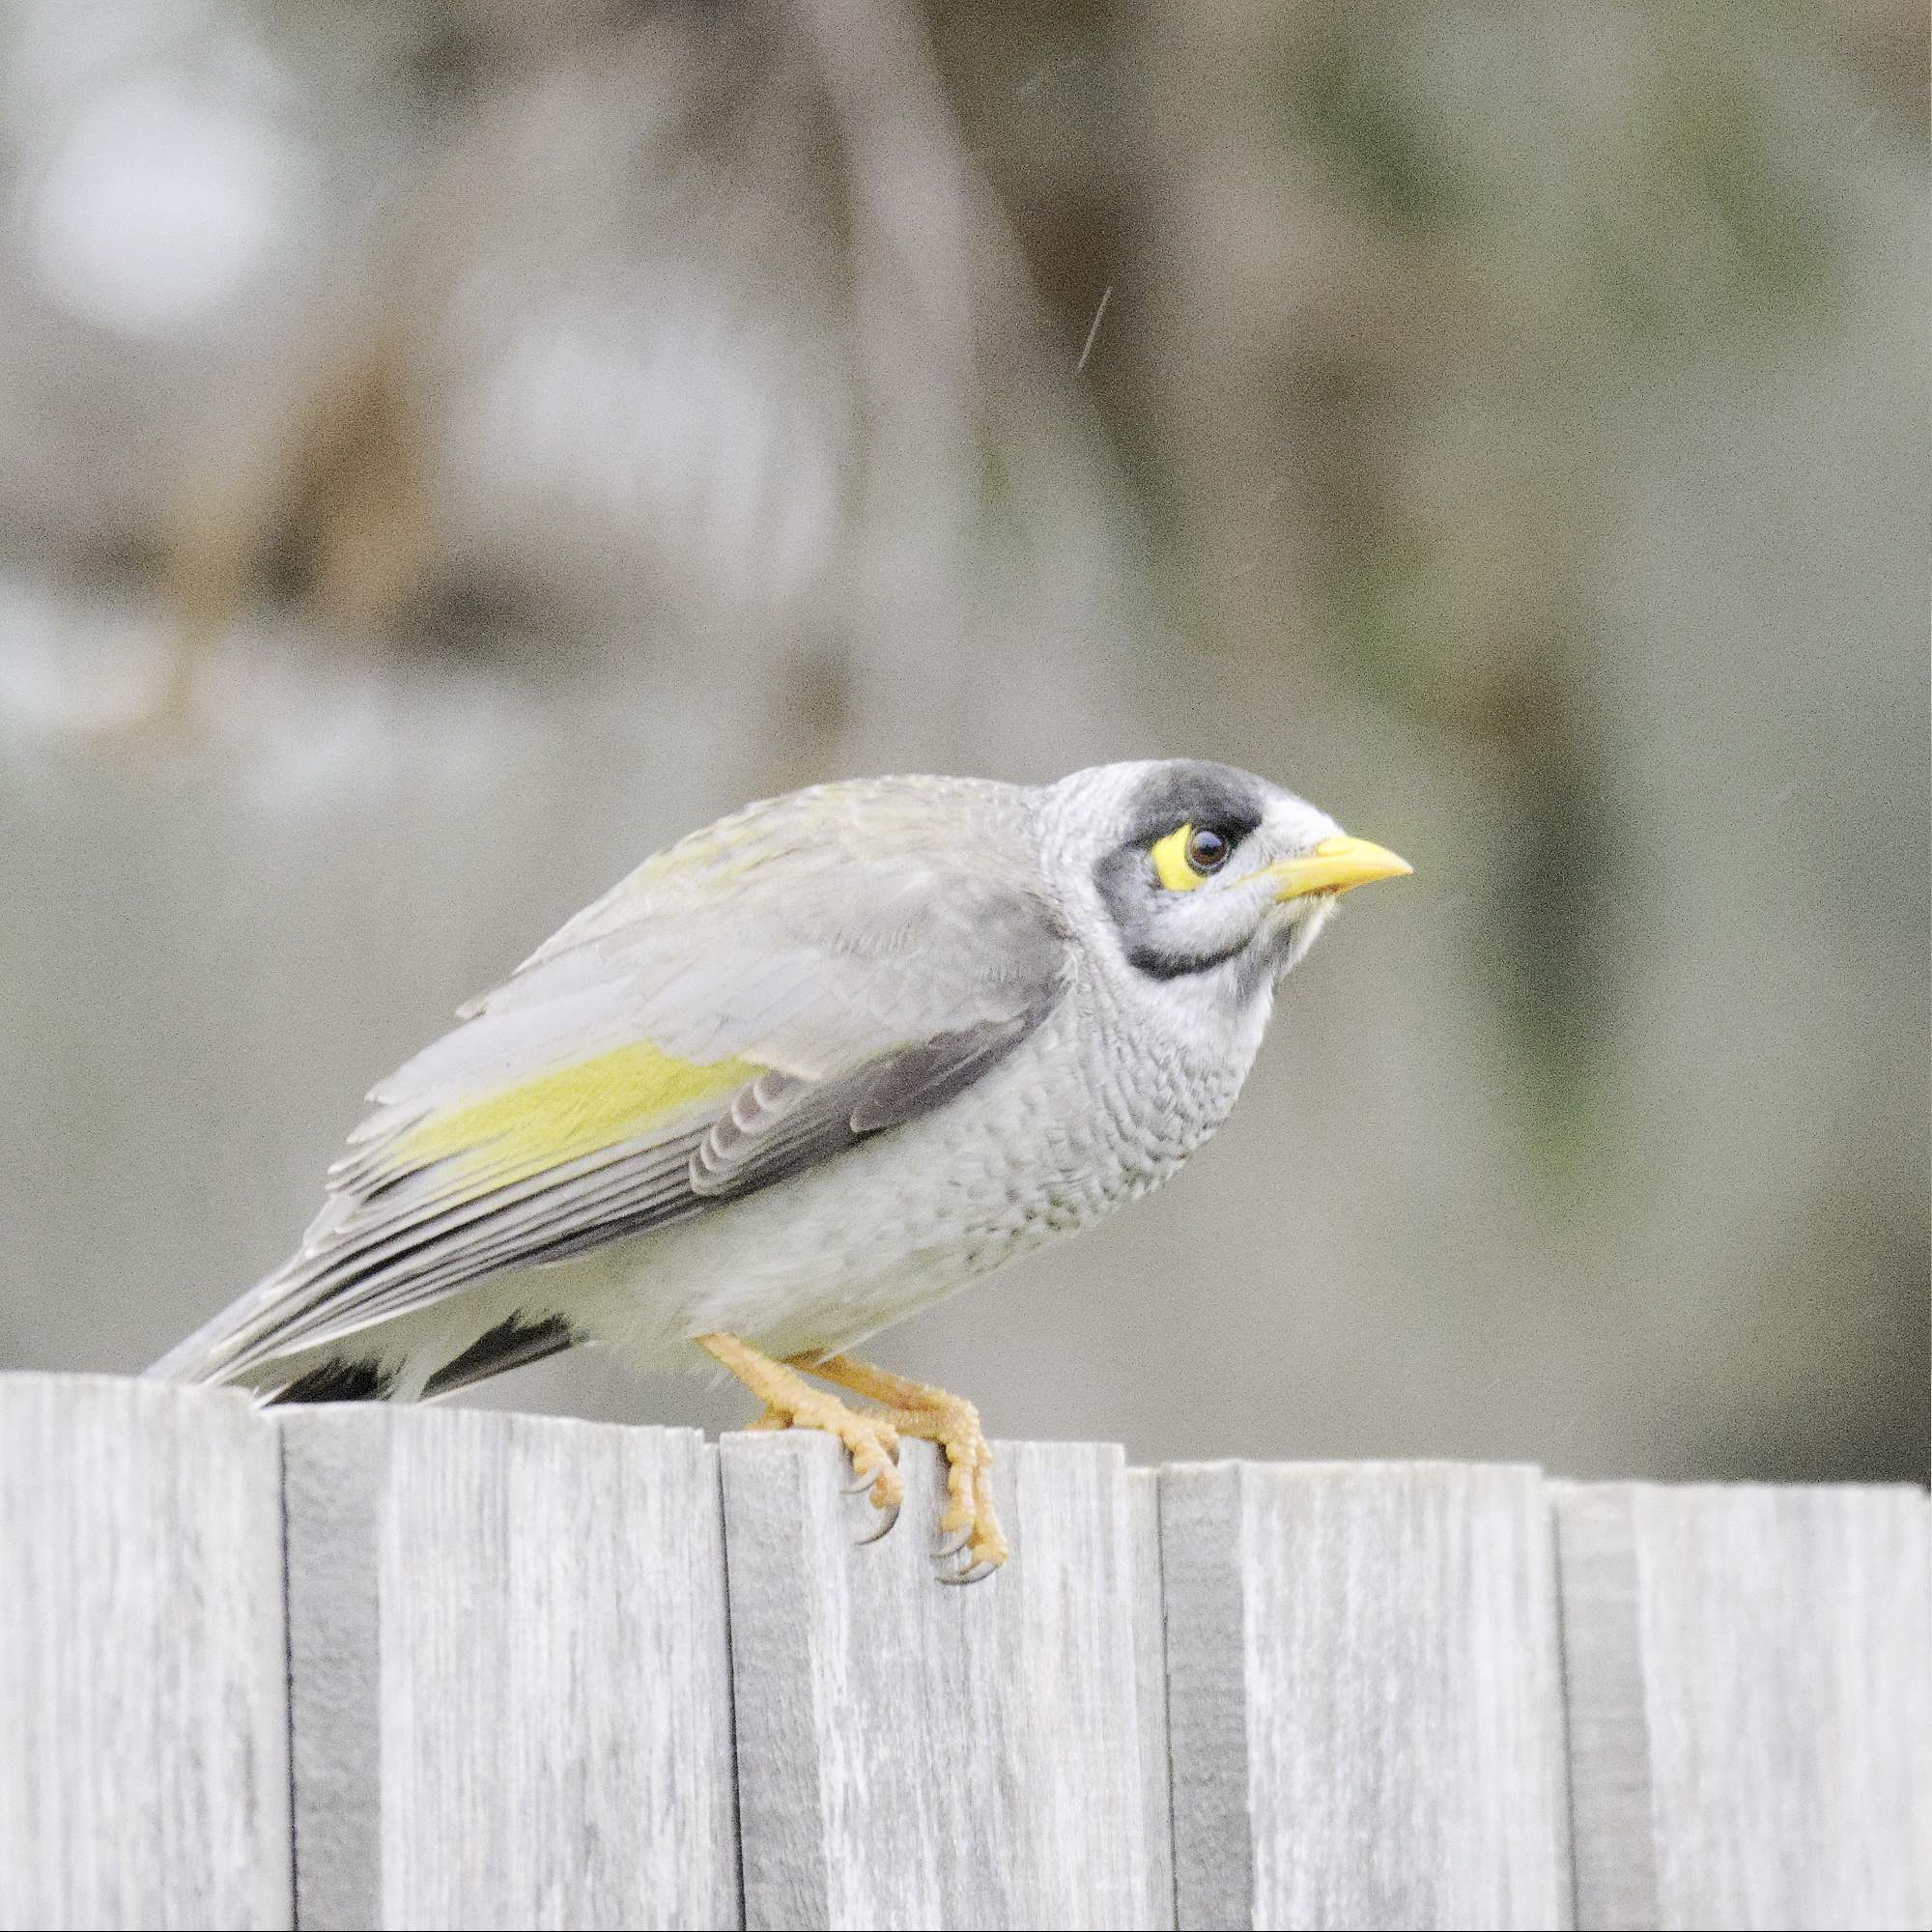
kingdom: Animalia
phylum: Chordata
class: Aves
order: Passeriformes
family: Meliphagidae
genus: Manorina
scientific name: Manorina melanocephala
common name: Noisy miner
